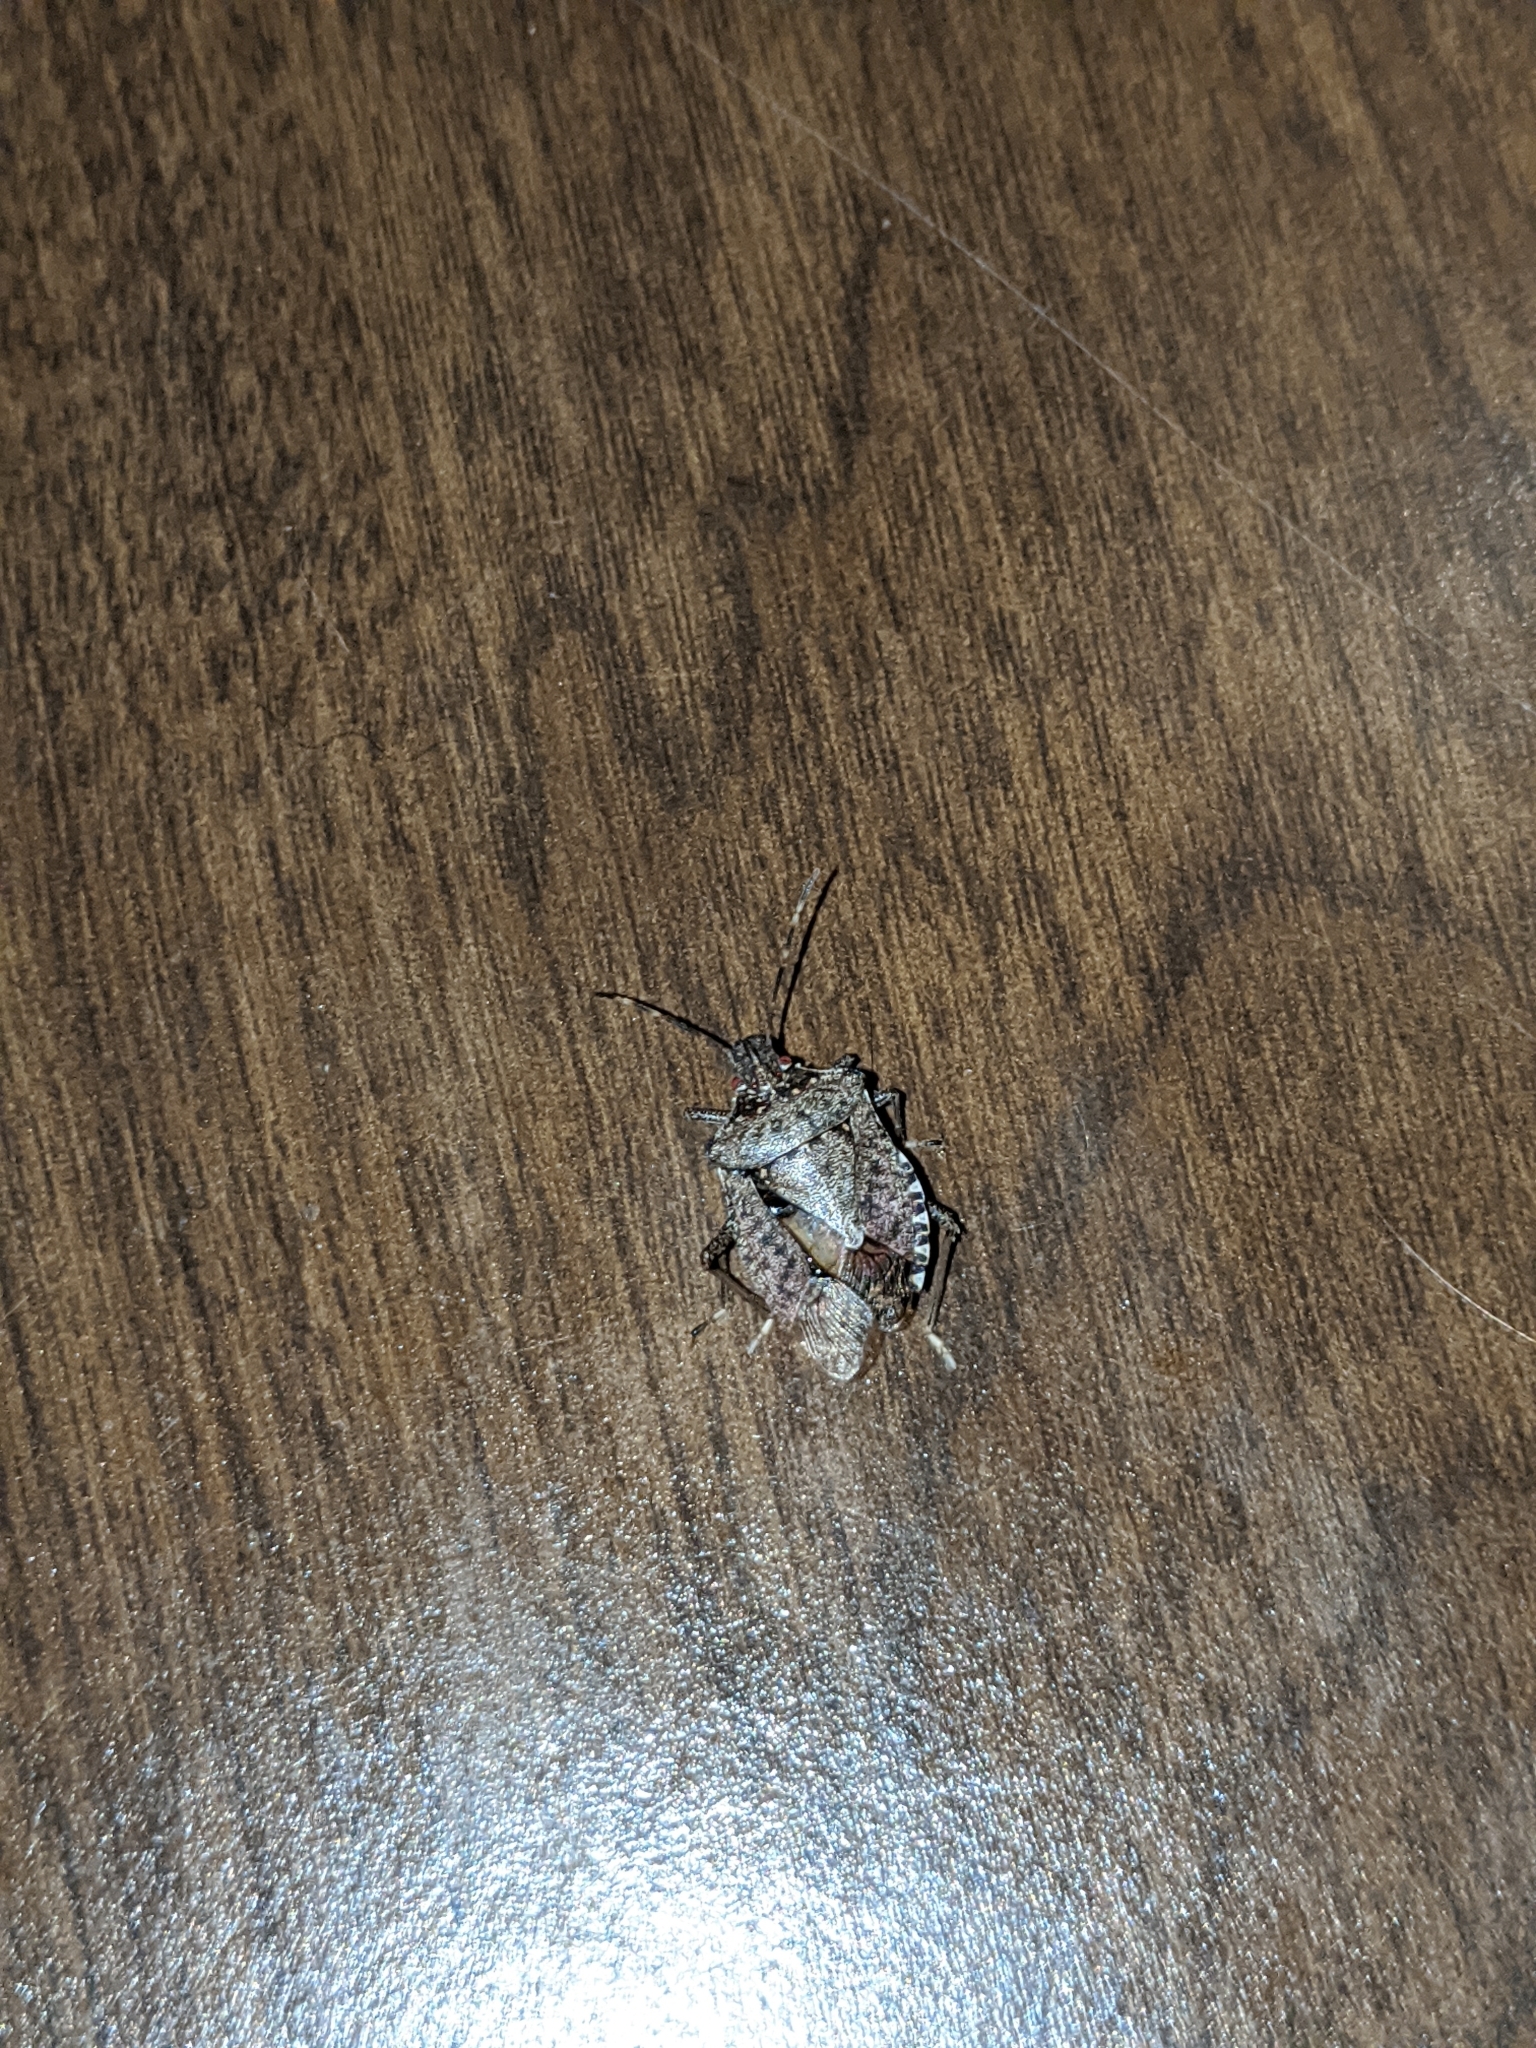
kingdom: Animalia
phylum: Arthropoda
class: Insecta
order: Hemiptera
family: Pentatomidae
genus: Halyomorpha
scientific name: Halyomorpha halys
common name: Brown marmorated stink bug
